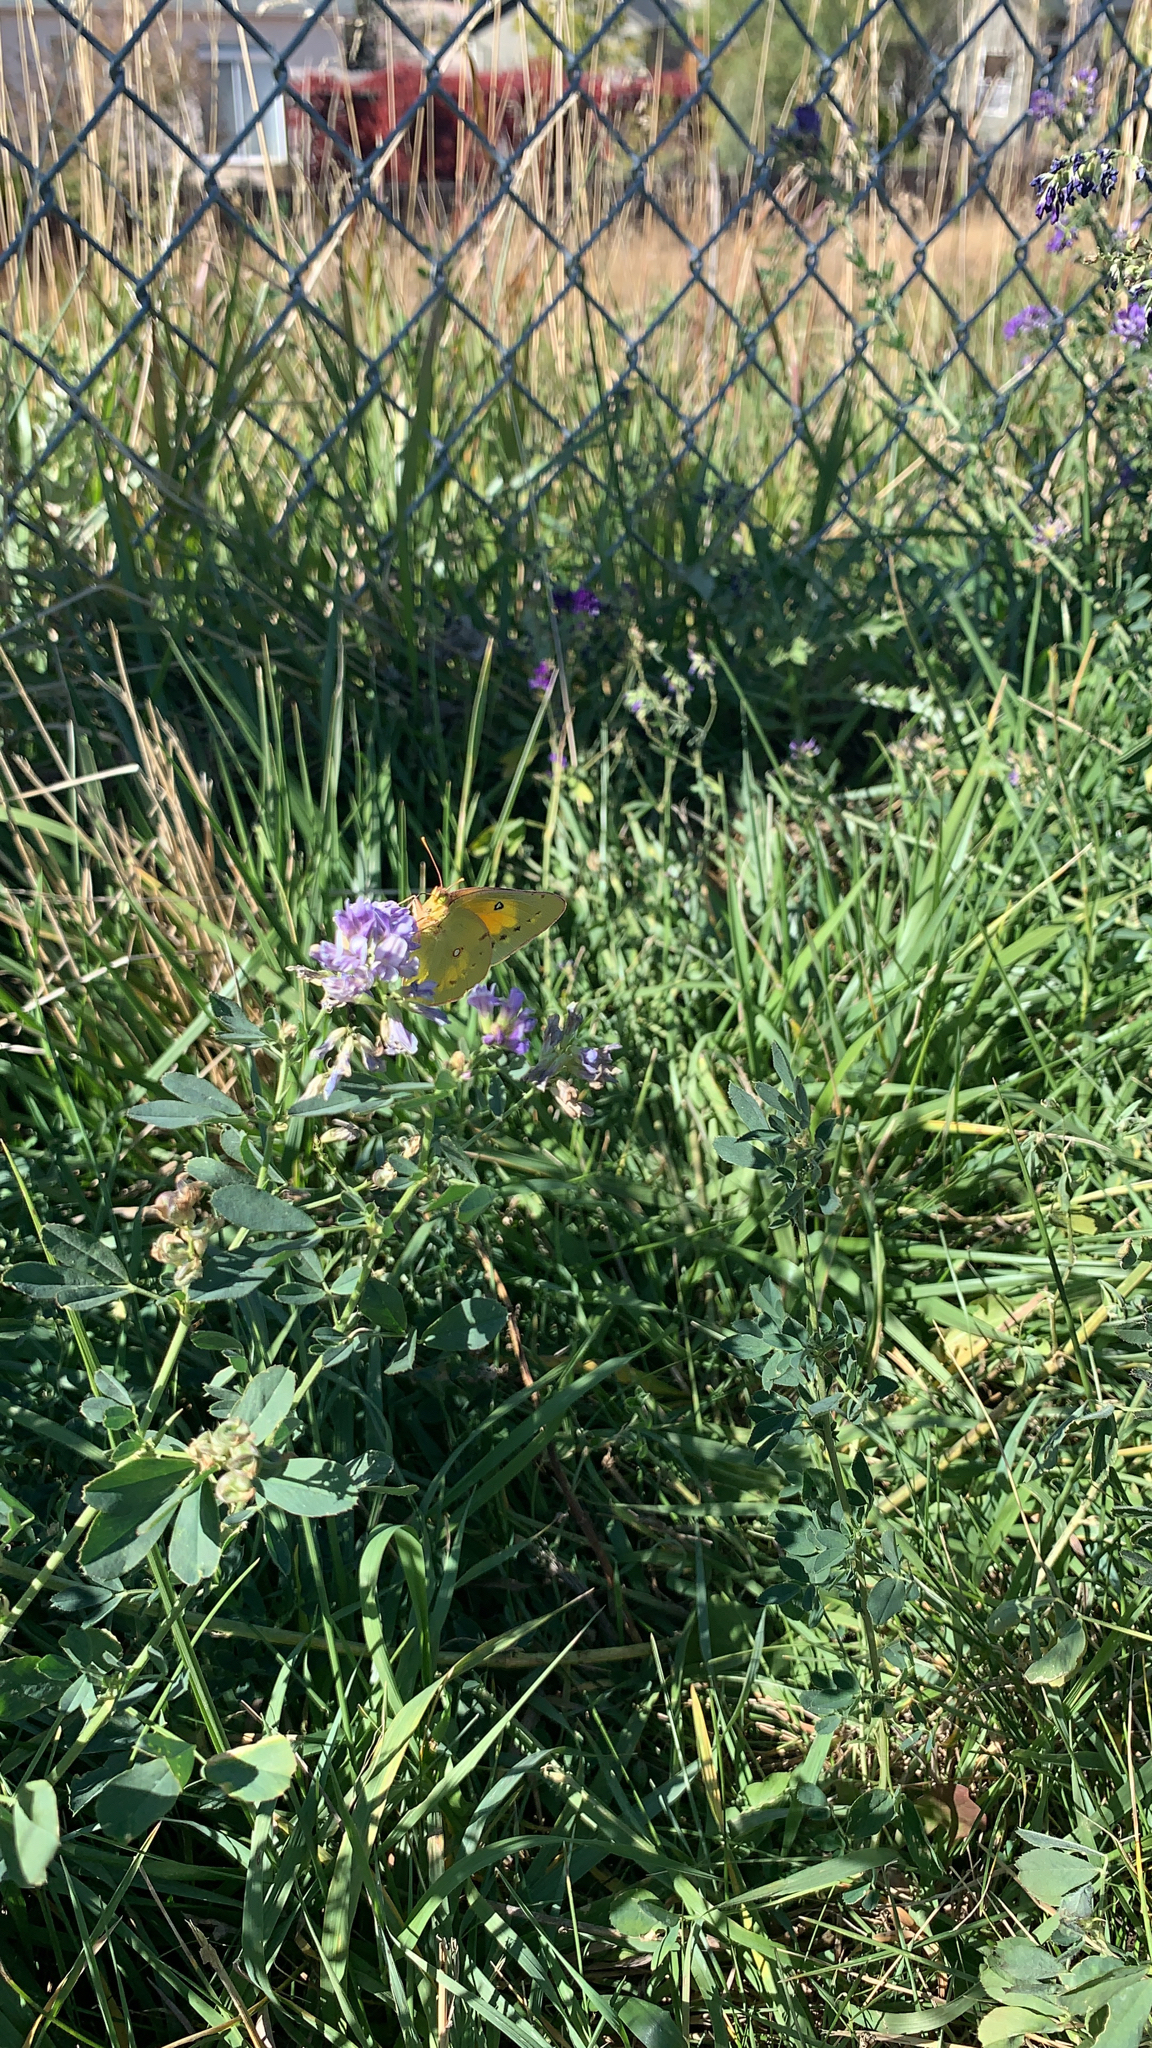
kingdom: Animalia
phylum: Arthropoda
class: Insecta
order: Lepidoptera
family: Pieridae
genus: Colias
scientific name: Colias eurytheme
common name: Alfalfa butterfly
